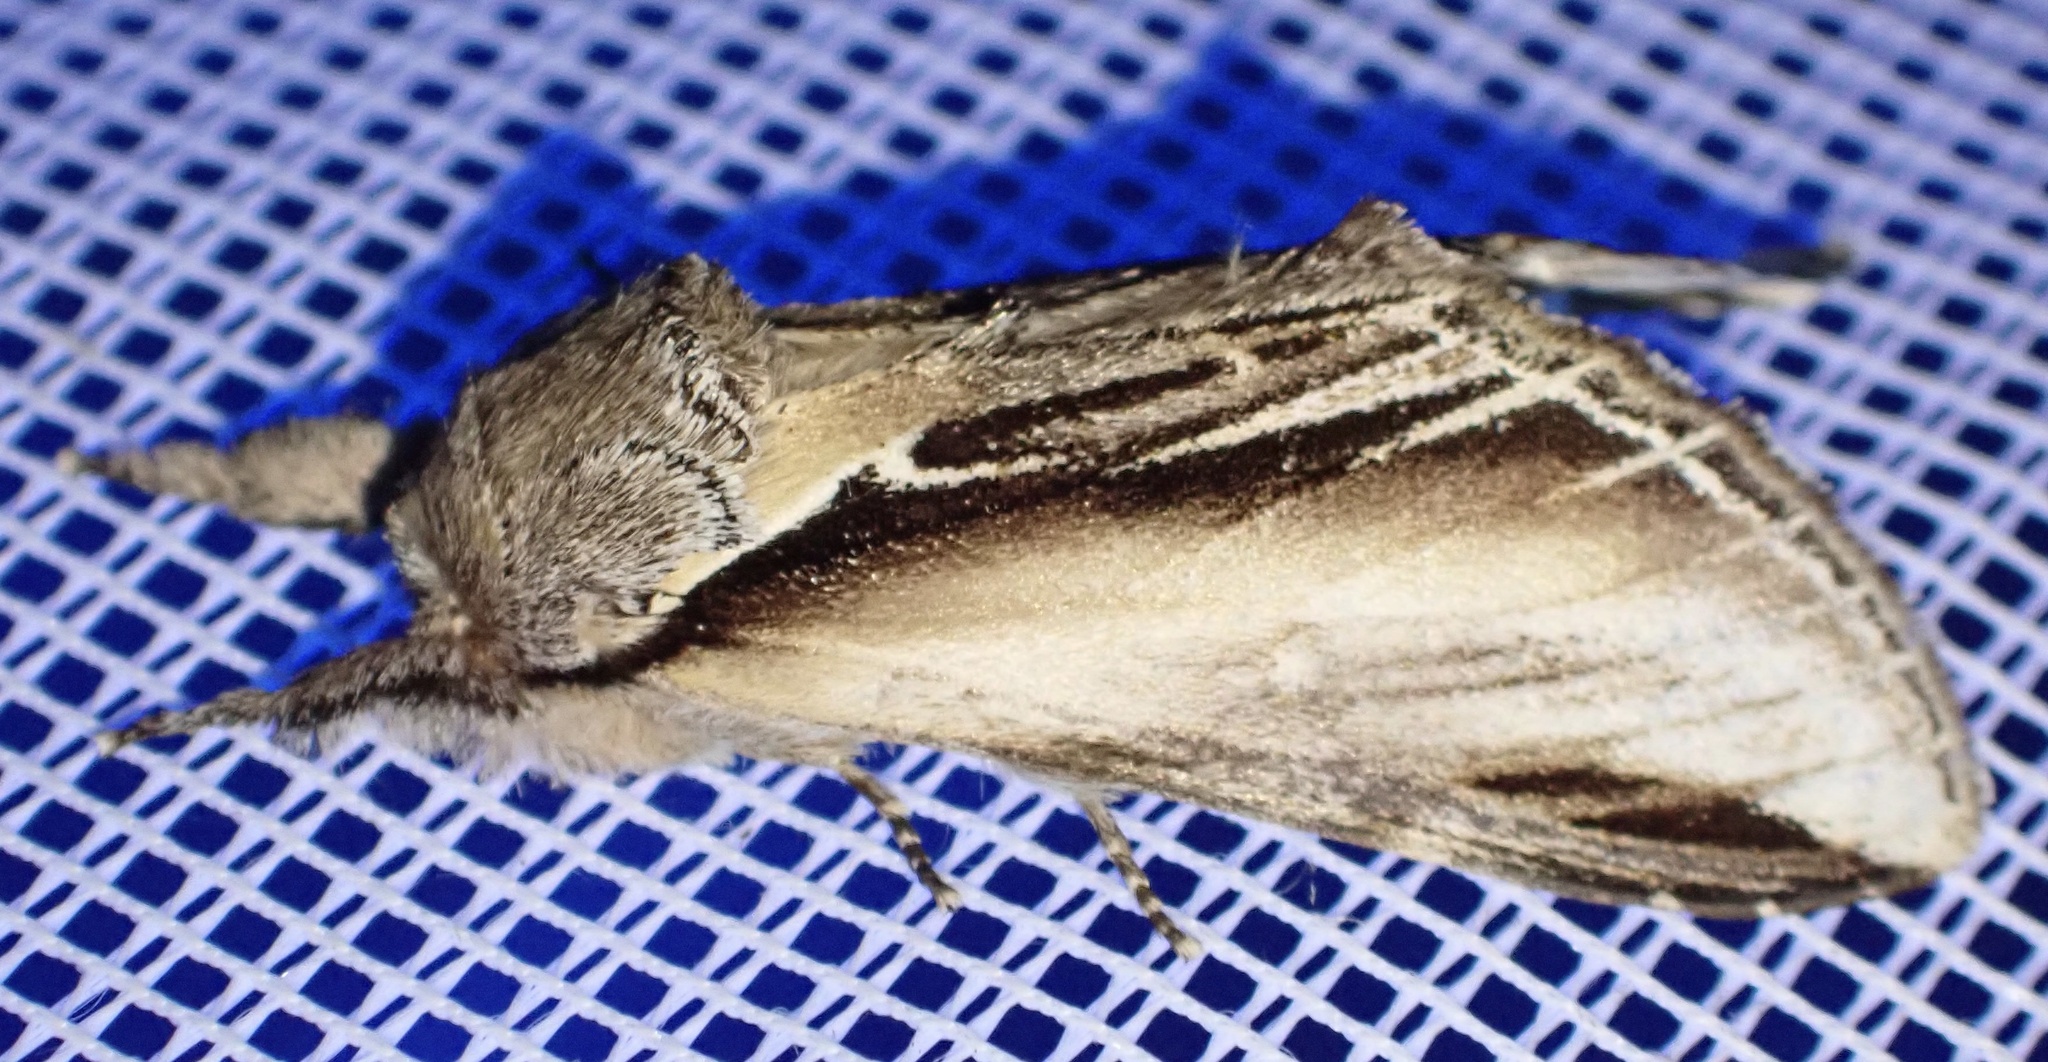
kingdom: Animalia
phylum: Arthropoda
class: Insecta
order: Lepidoptera
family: Notodontidae
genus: Pheosia
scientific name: Pheosia tremula
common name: Swallow prominent
